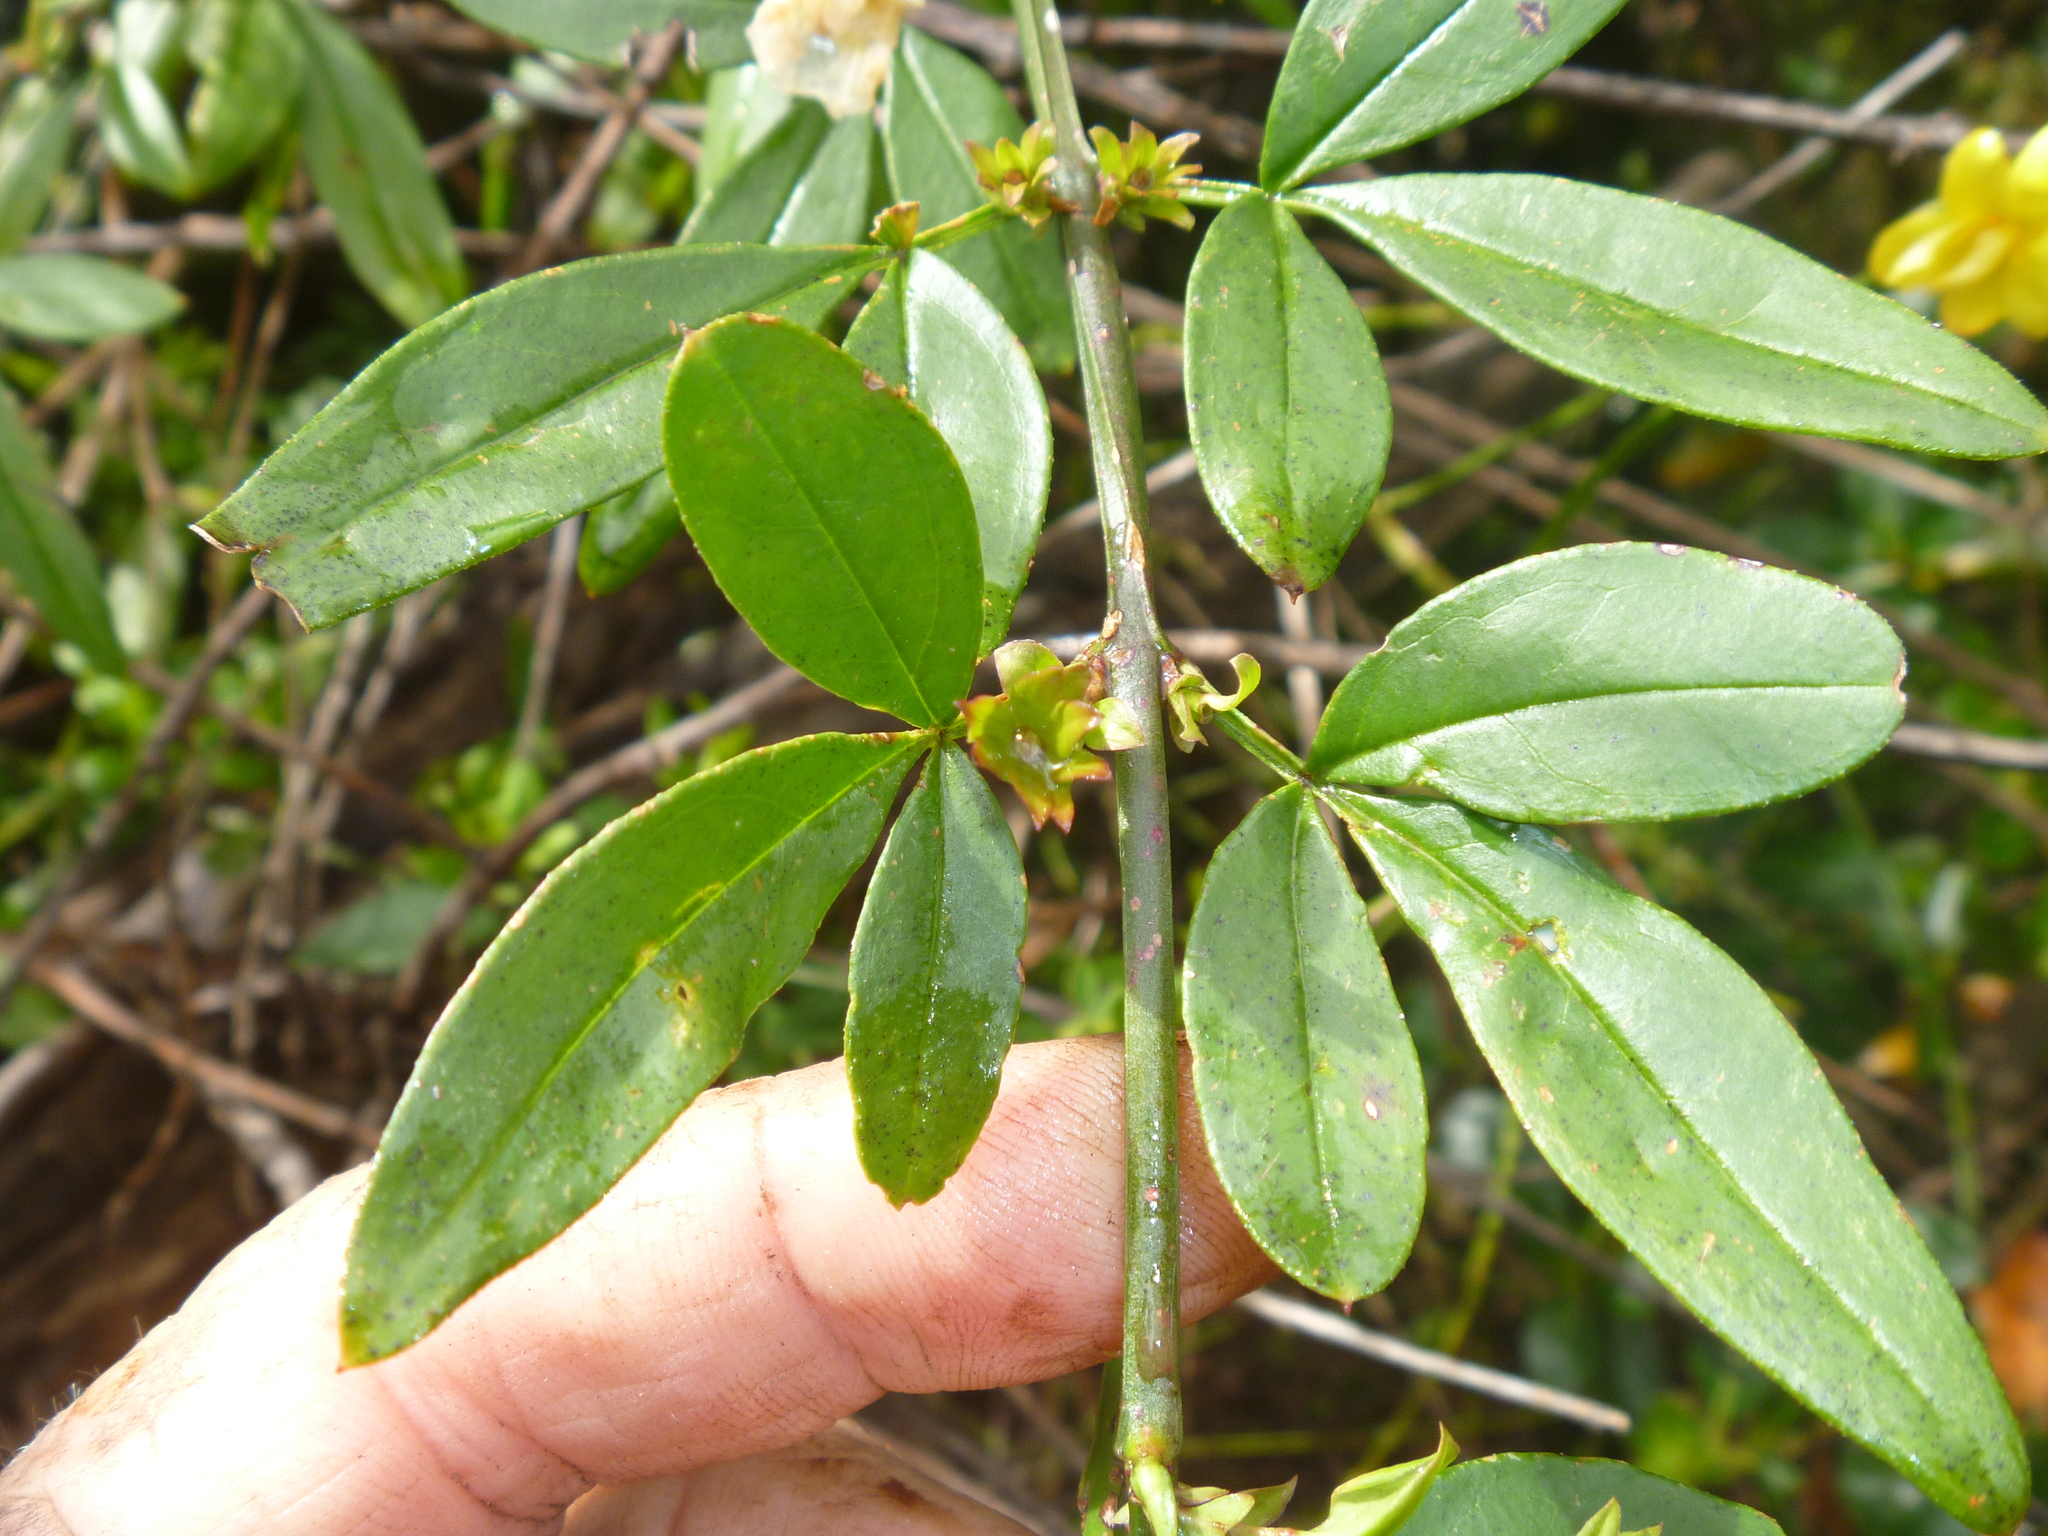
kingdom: Plantae
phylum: Tracheophyta
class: Magnoliopsida
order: Lamiales
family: Oleaceae
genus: Jasminum
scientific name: Jasminum mesnyi
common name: Japanese jasmine
